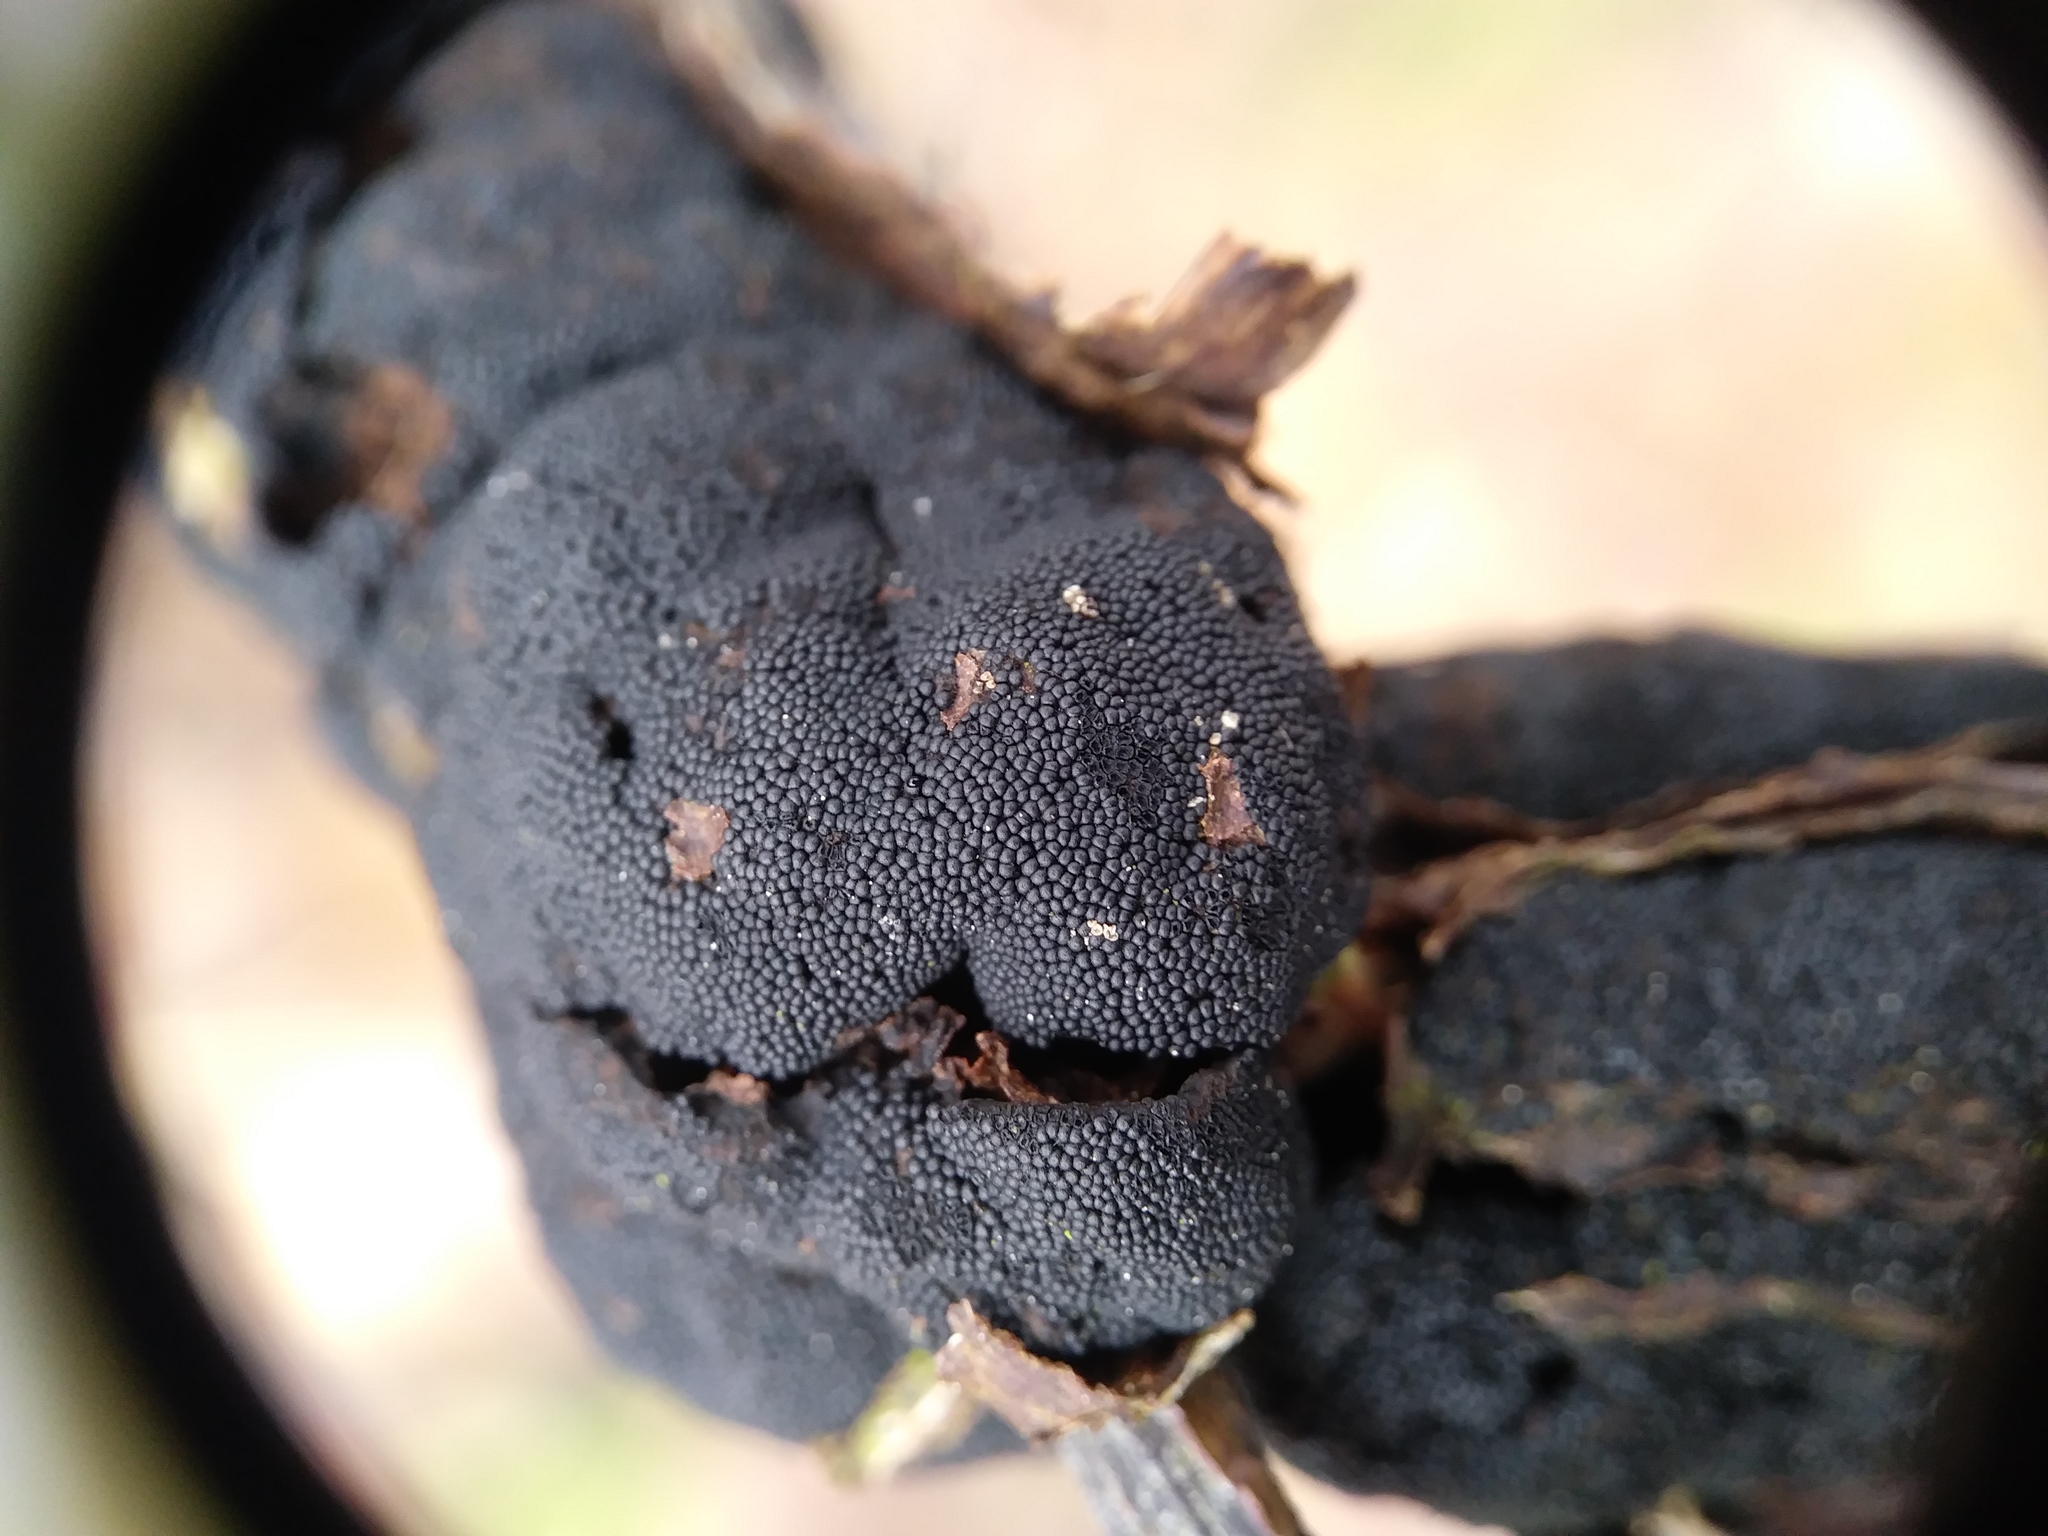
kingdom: Fungi
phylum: Ascomycota
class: Dothideomycetes
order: Venturiales
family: Venturiaceae
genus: Apiosporina
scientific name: Apiosporina morbosa
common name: Black knot
